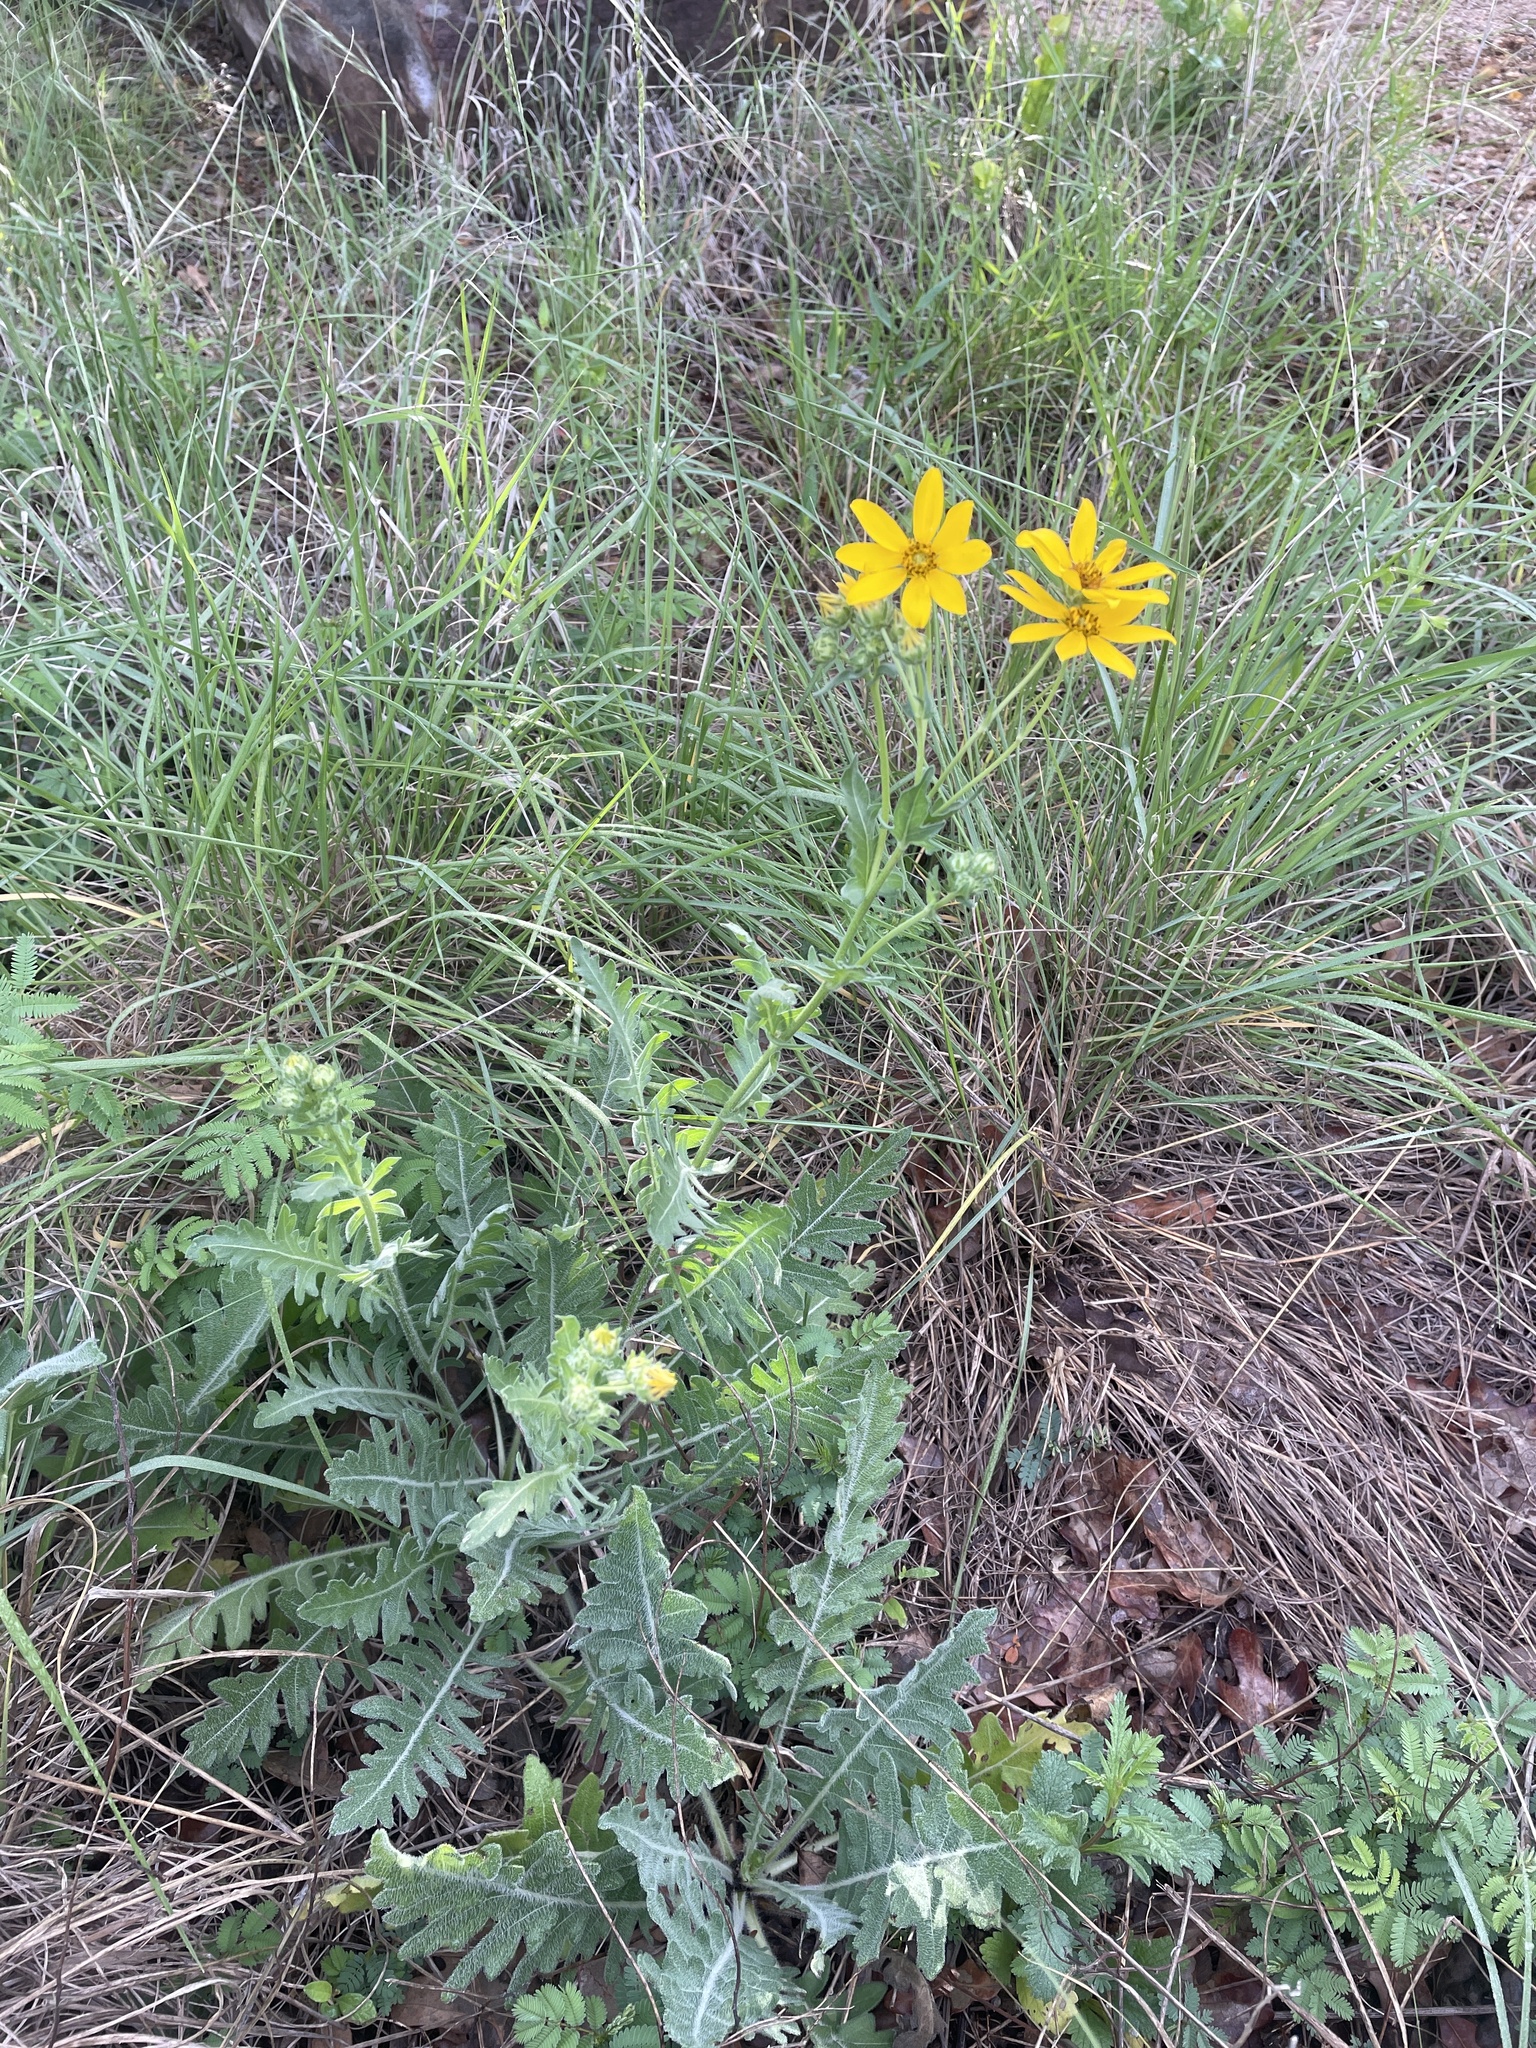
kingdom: Plantae
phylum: Tracheophyta
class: Magnoliopsida
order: Asterales
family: Asteraceae
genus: Engelmannia
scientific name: Engelmannia peristenia
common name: Engelmann's daisy
